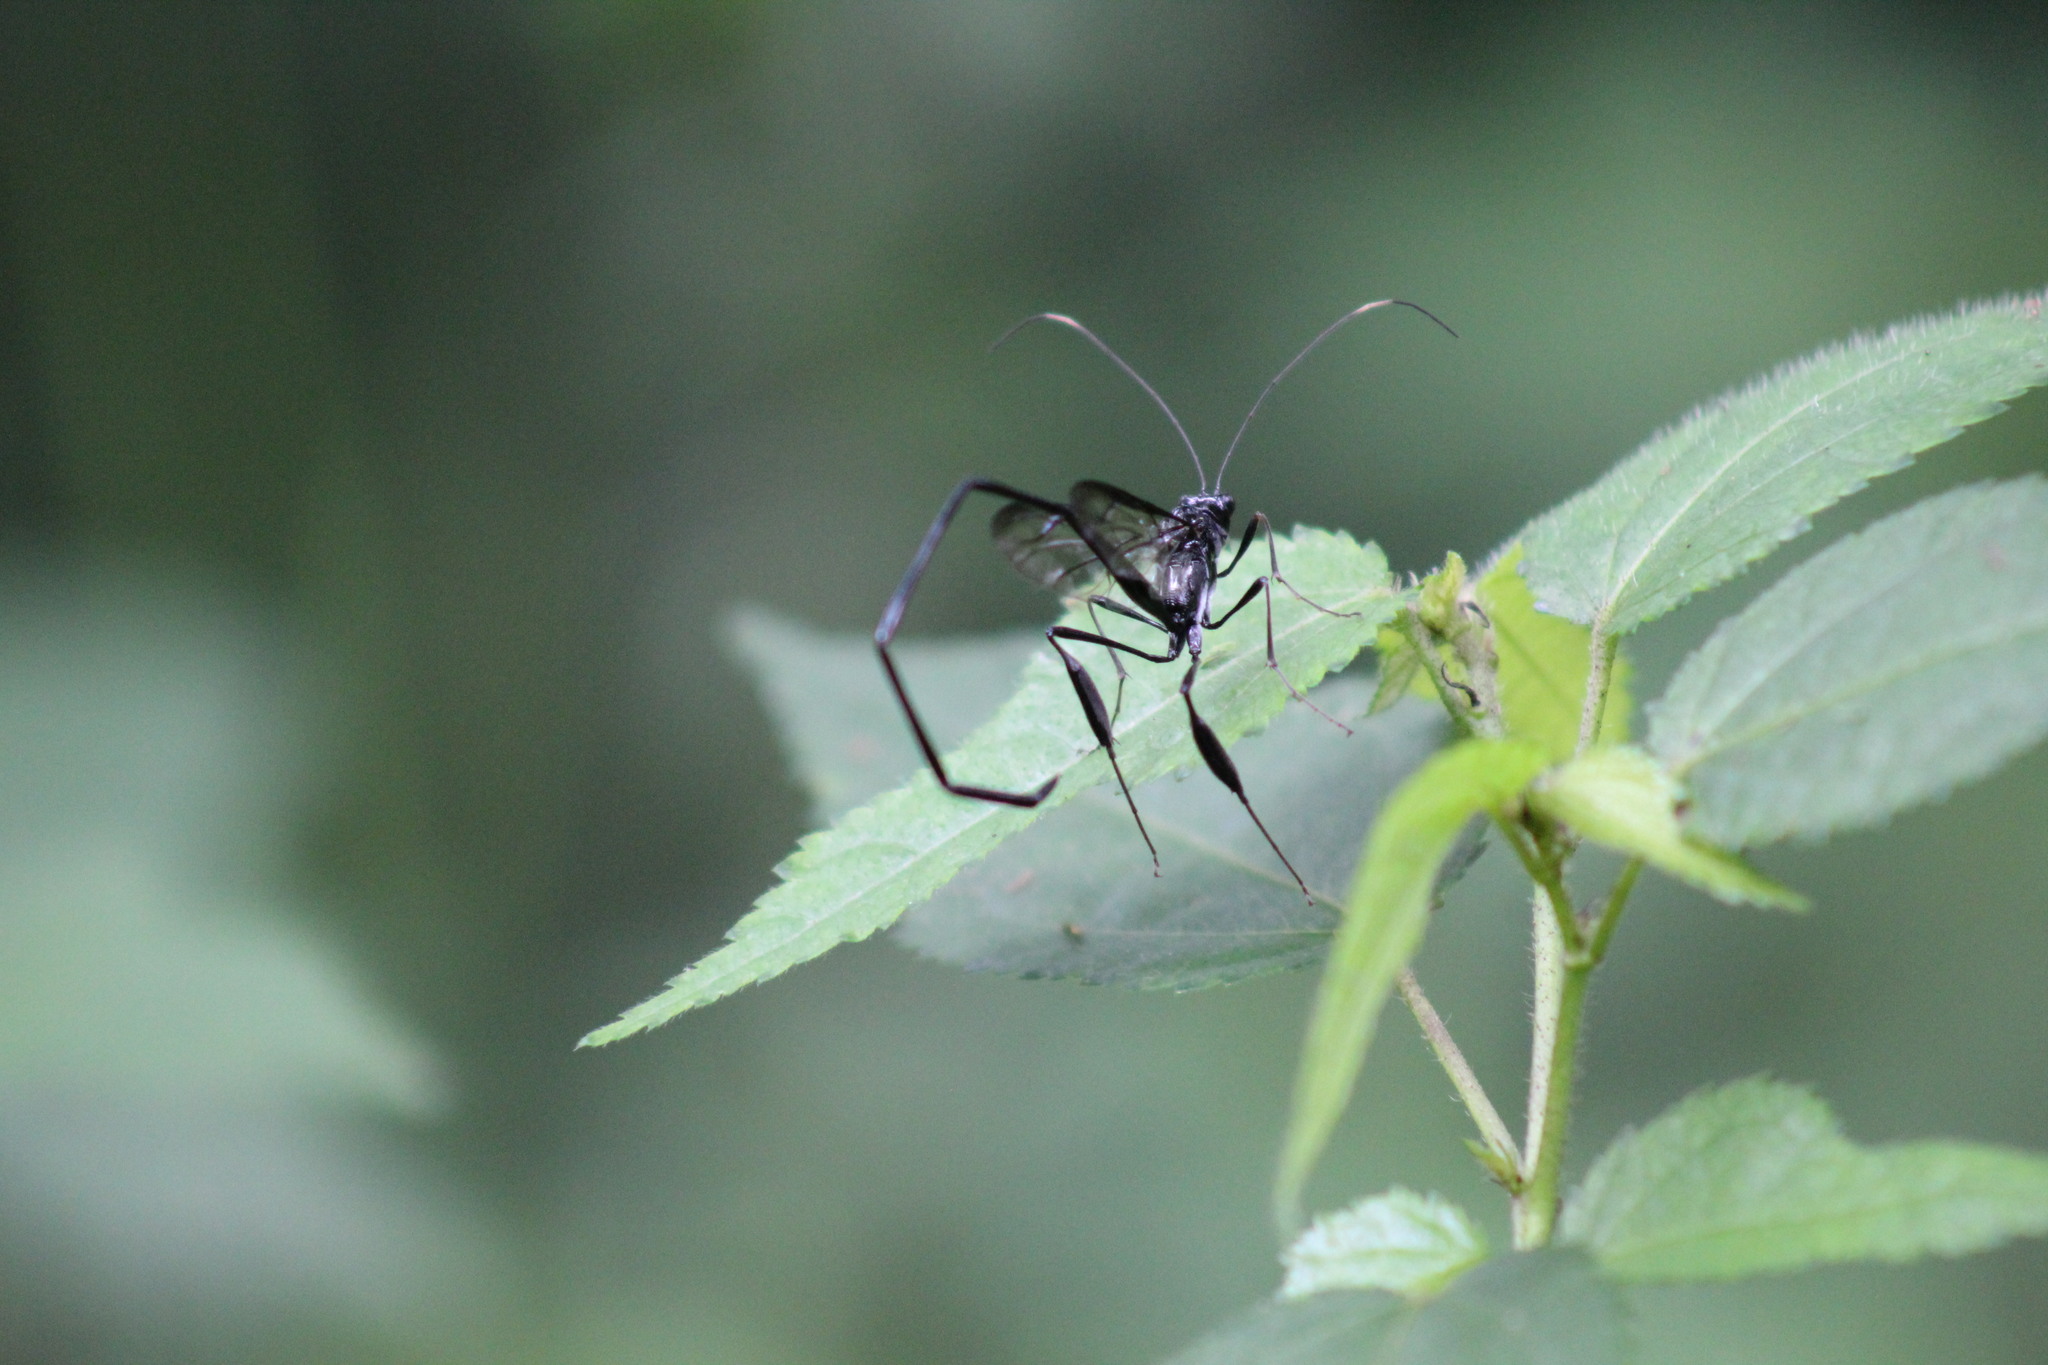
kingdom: Animalia
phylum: Arthropoda
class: Insecta
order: Hymenoptera
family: Pelecinidae
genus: Pelecinus
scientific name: Pelecinus polyturator
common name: American pelecinid wasp
